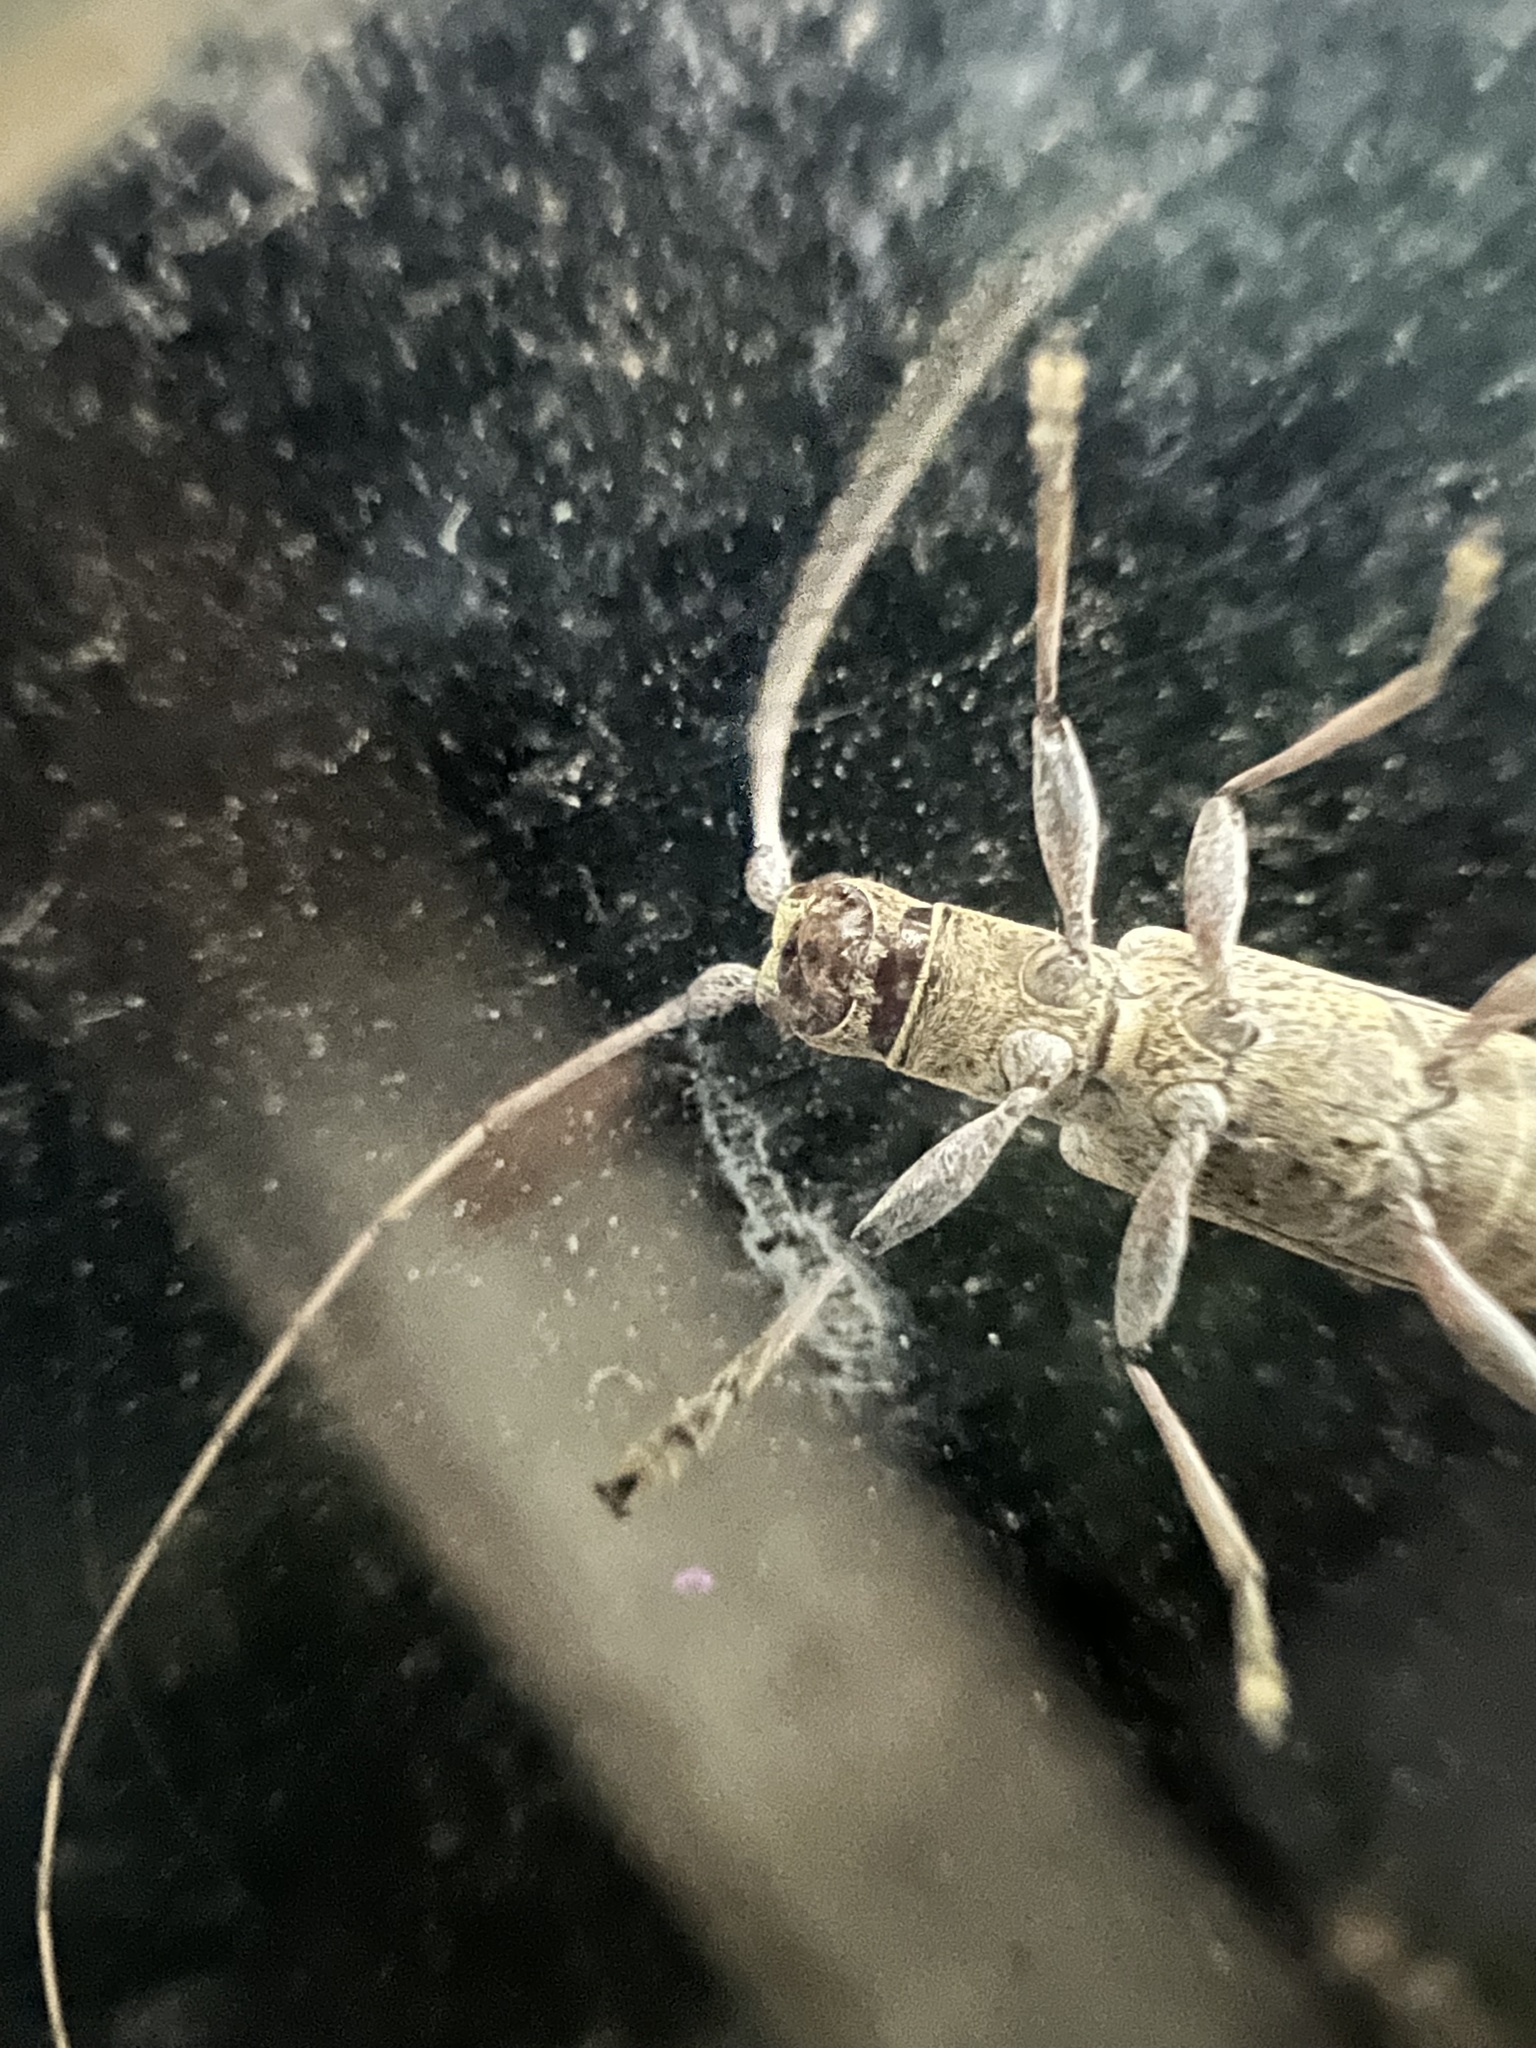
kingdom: Animalia
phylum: Arthropoda
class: Insecta
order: Coleoptera
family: Cerambycidae
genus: Dorcaschema
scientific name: Dorcaschema alternatum
